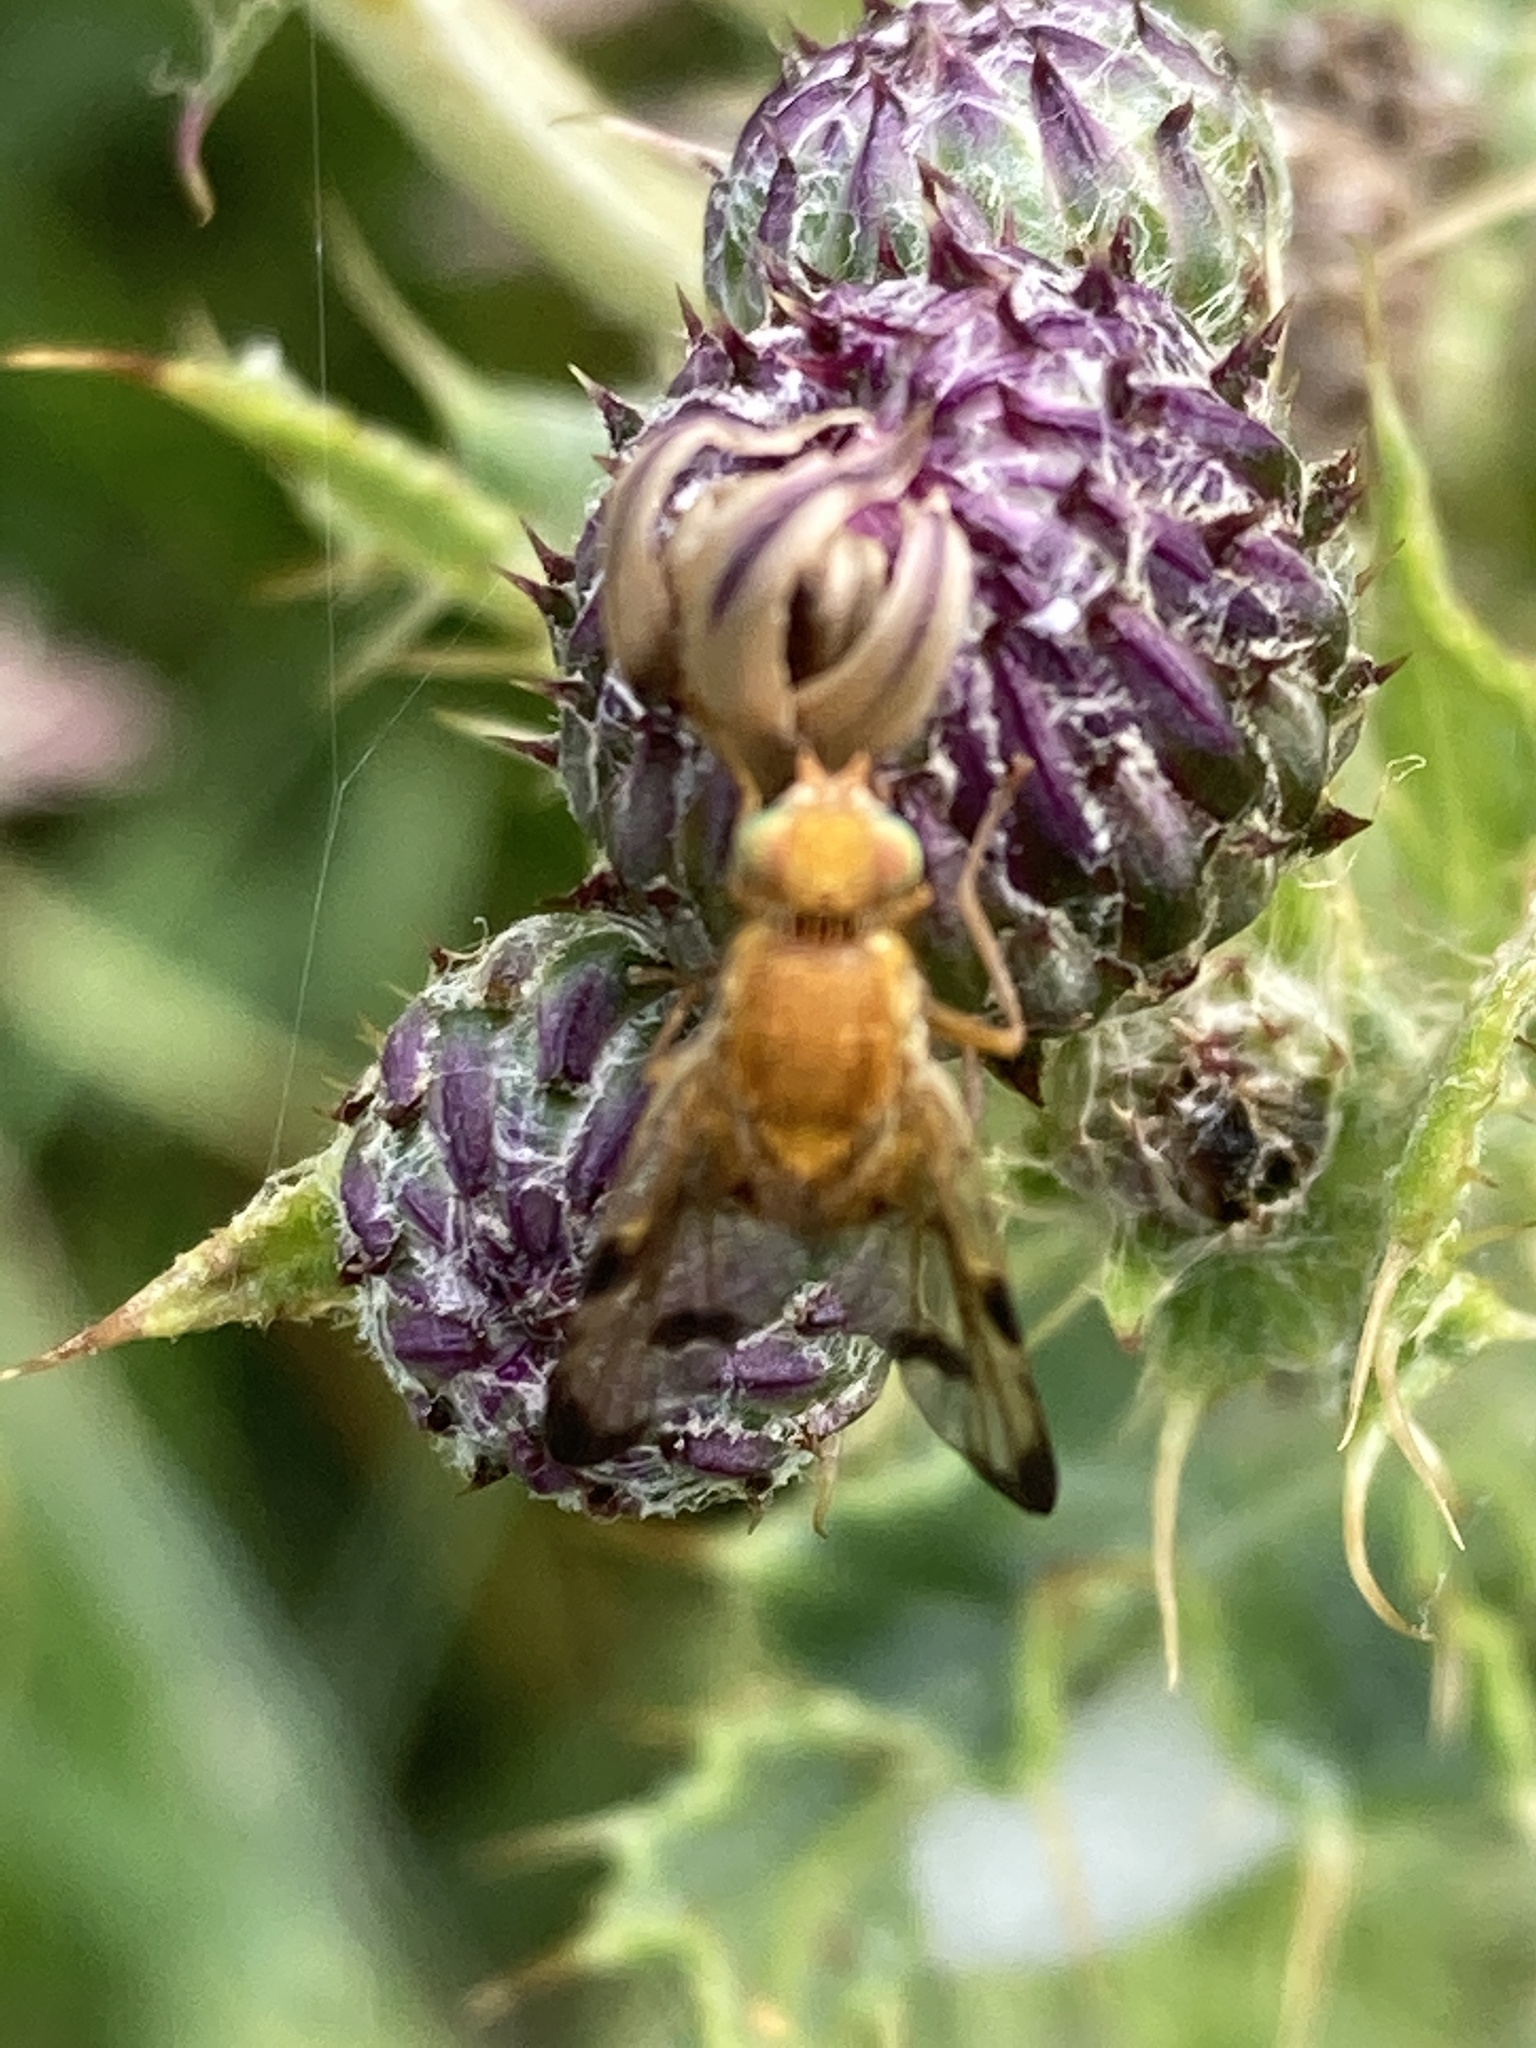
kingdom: Animalia
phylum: Arthropoda
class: Insecta
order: Diptera
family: Tephritidae
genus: Xyphosia
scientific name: Xyphosia miliaria
